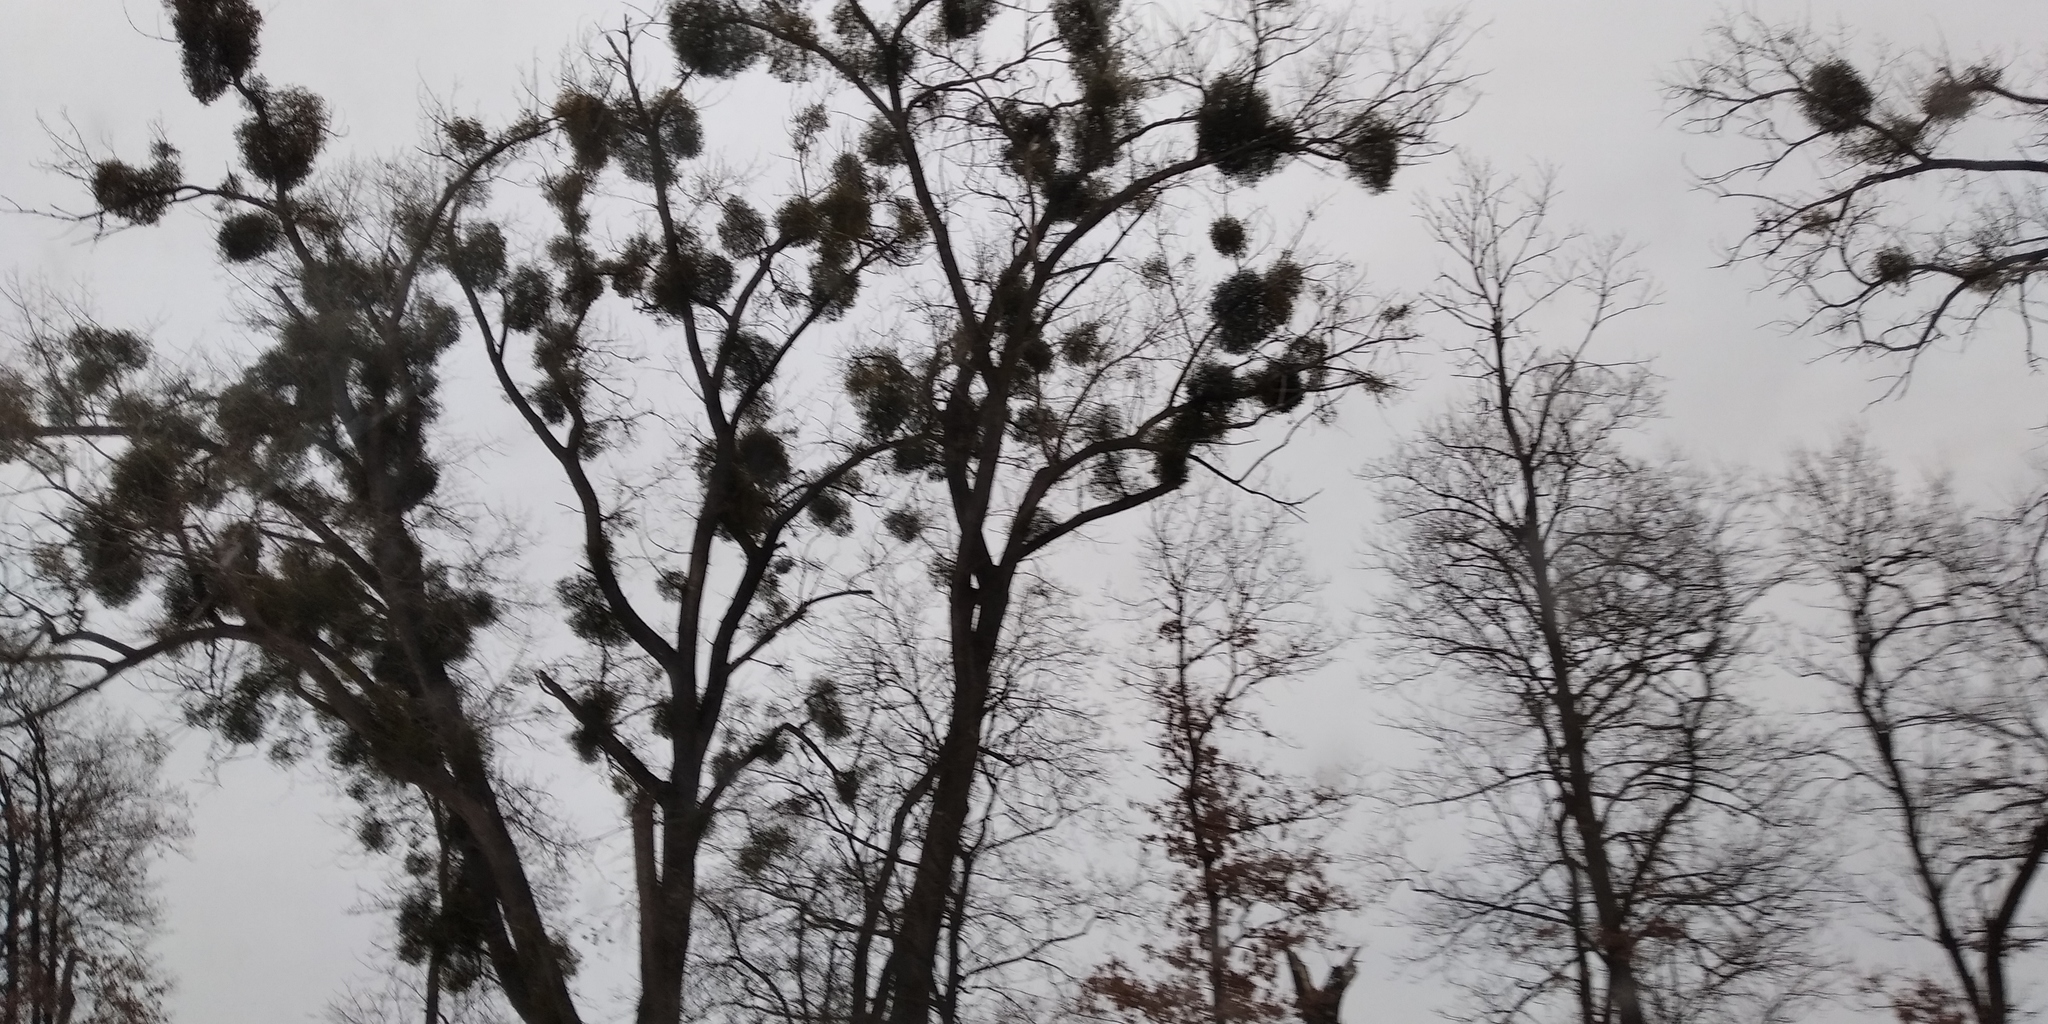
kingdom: Plantae
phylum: Tracheophyta
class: Magnoliopsida
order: Santalales
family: Viscaceae
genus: Viscum
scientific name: Viscum album
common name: Mistletoe
